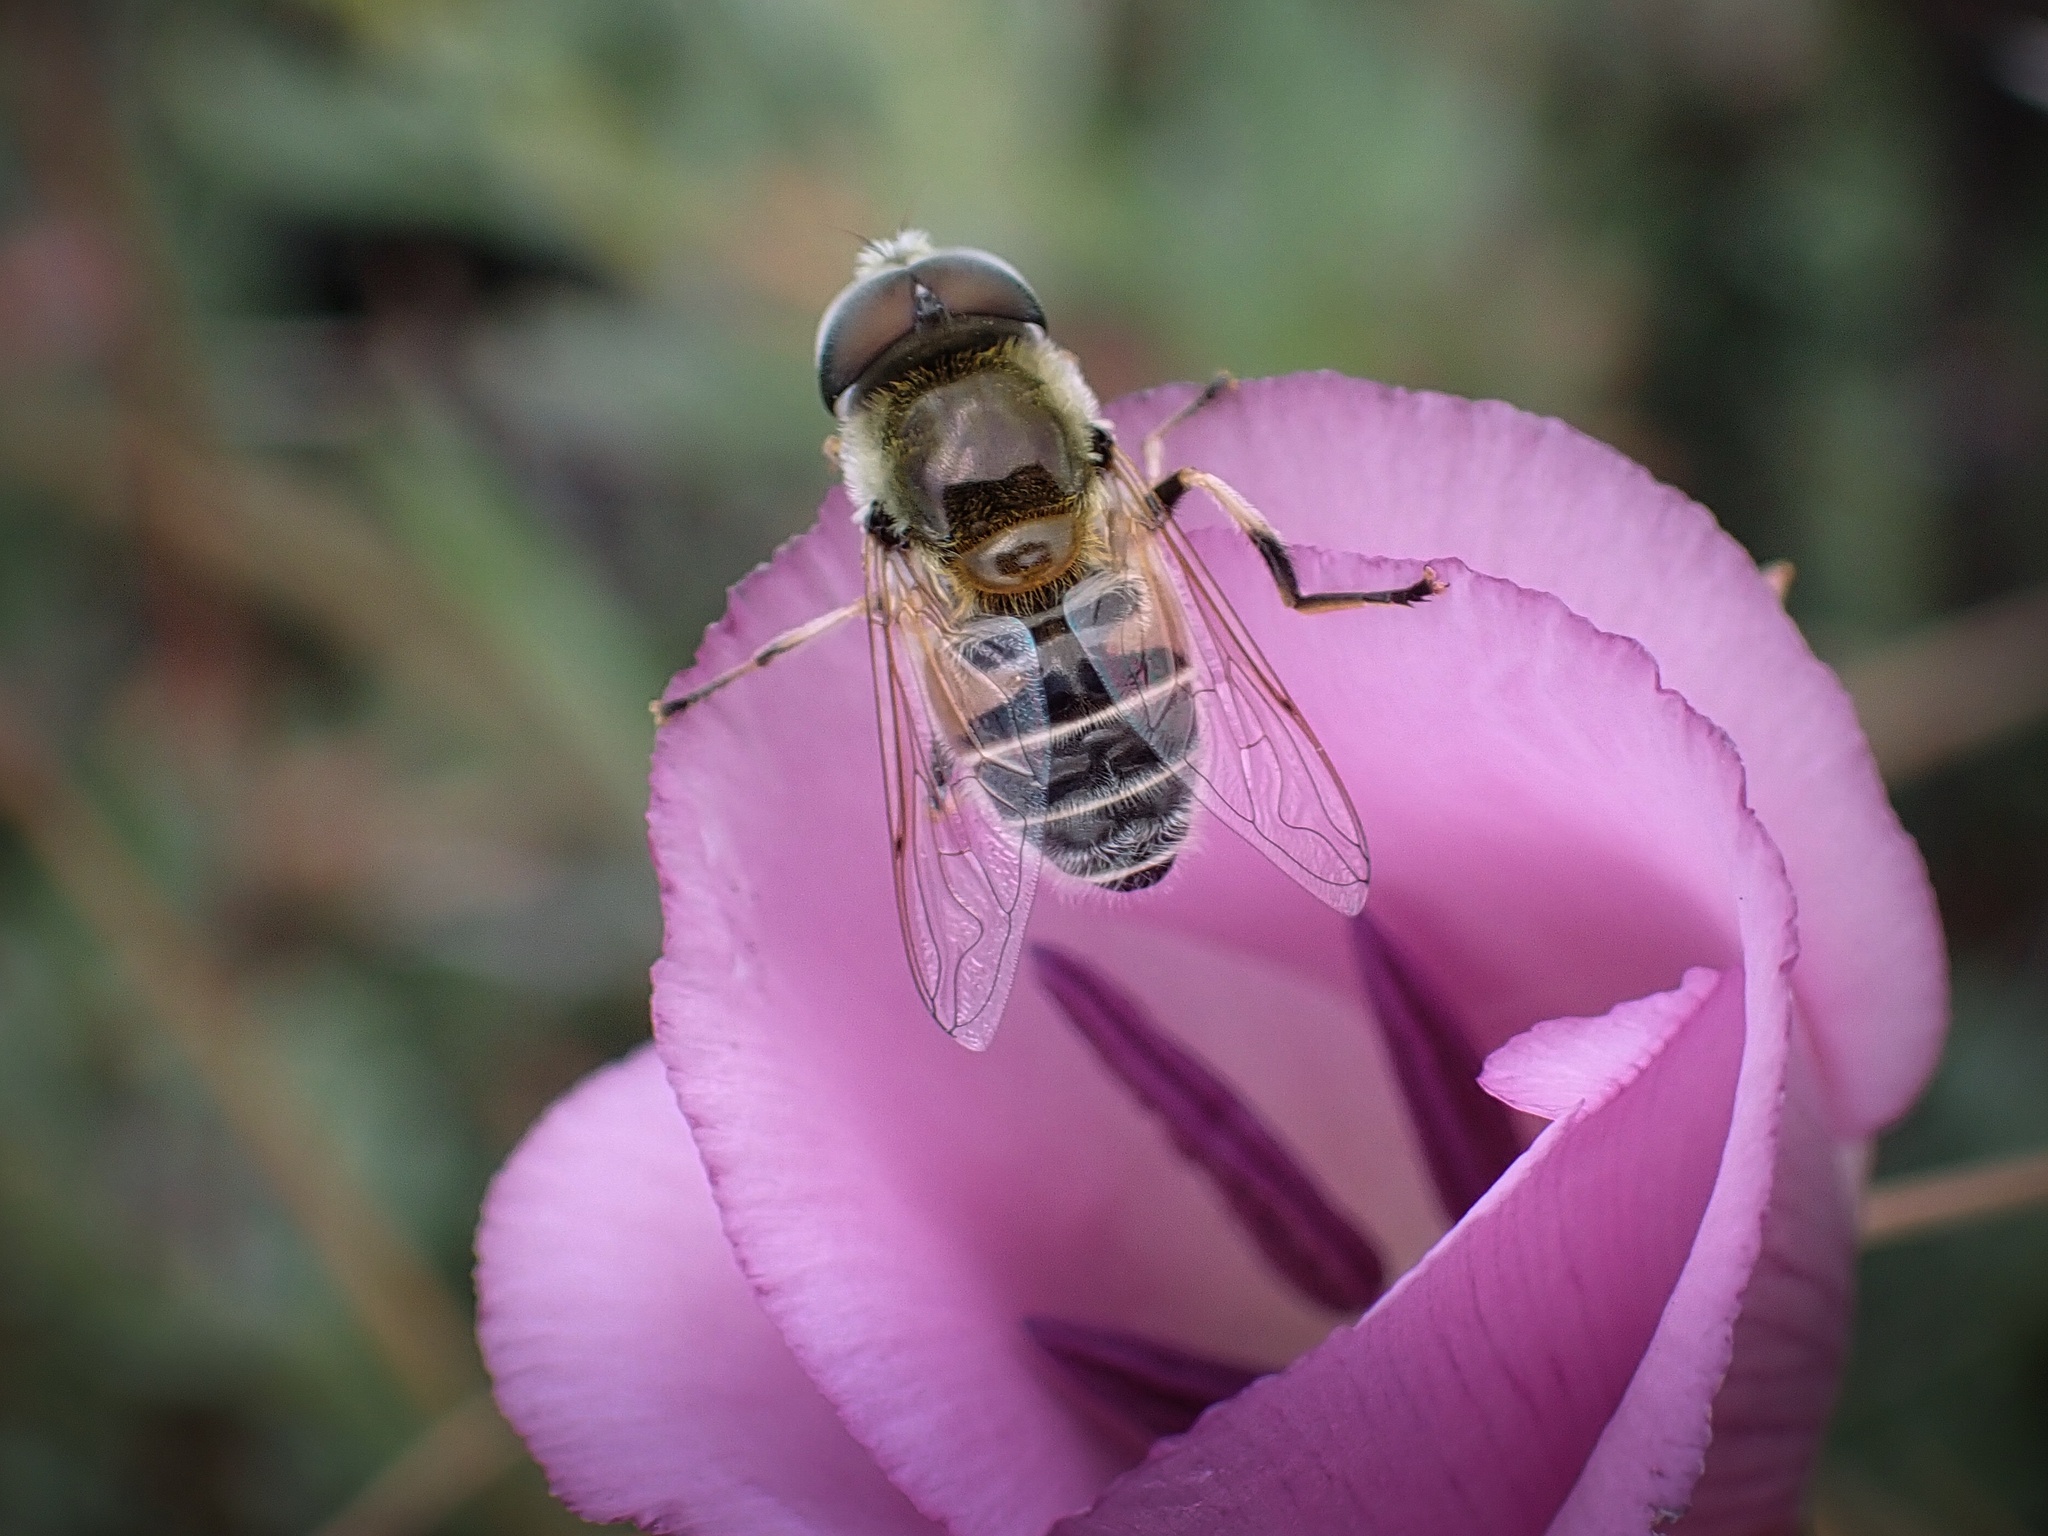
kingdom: Animalia
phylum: Arthropoda
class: Insecta
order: Diptera
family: Syrphidae
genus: Eristalis
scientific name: Eristalis stipator
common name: Yellow-shouldered drone fly
